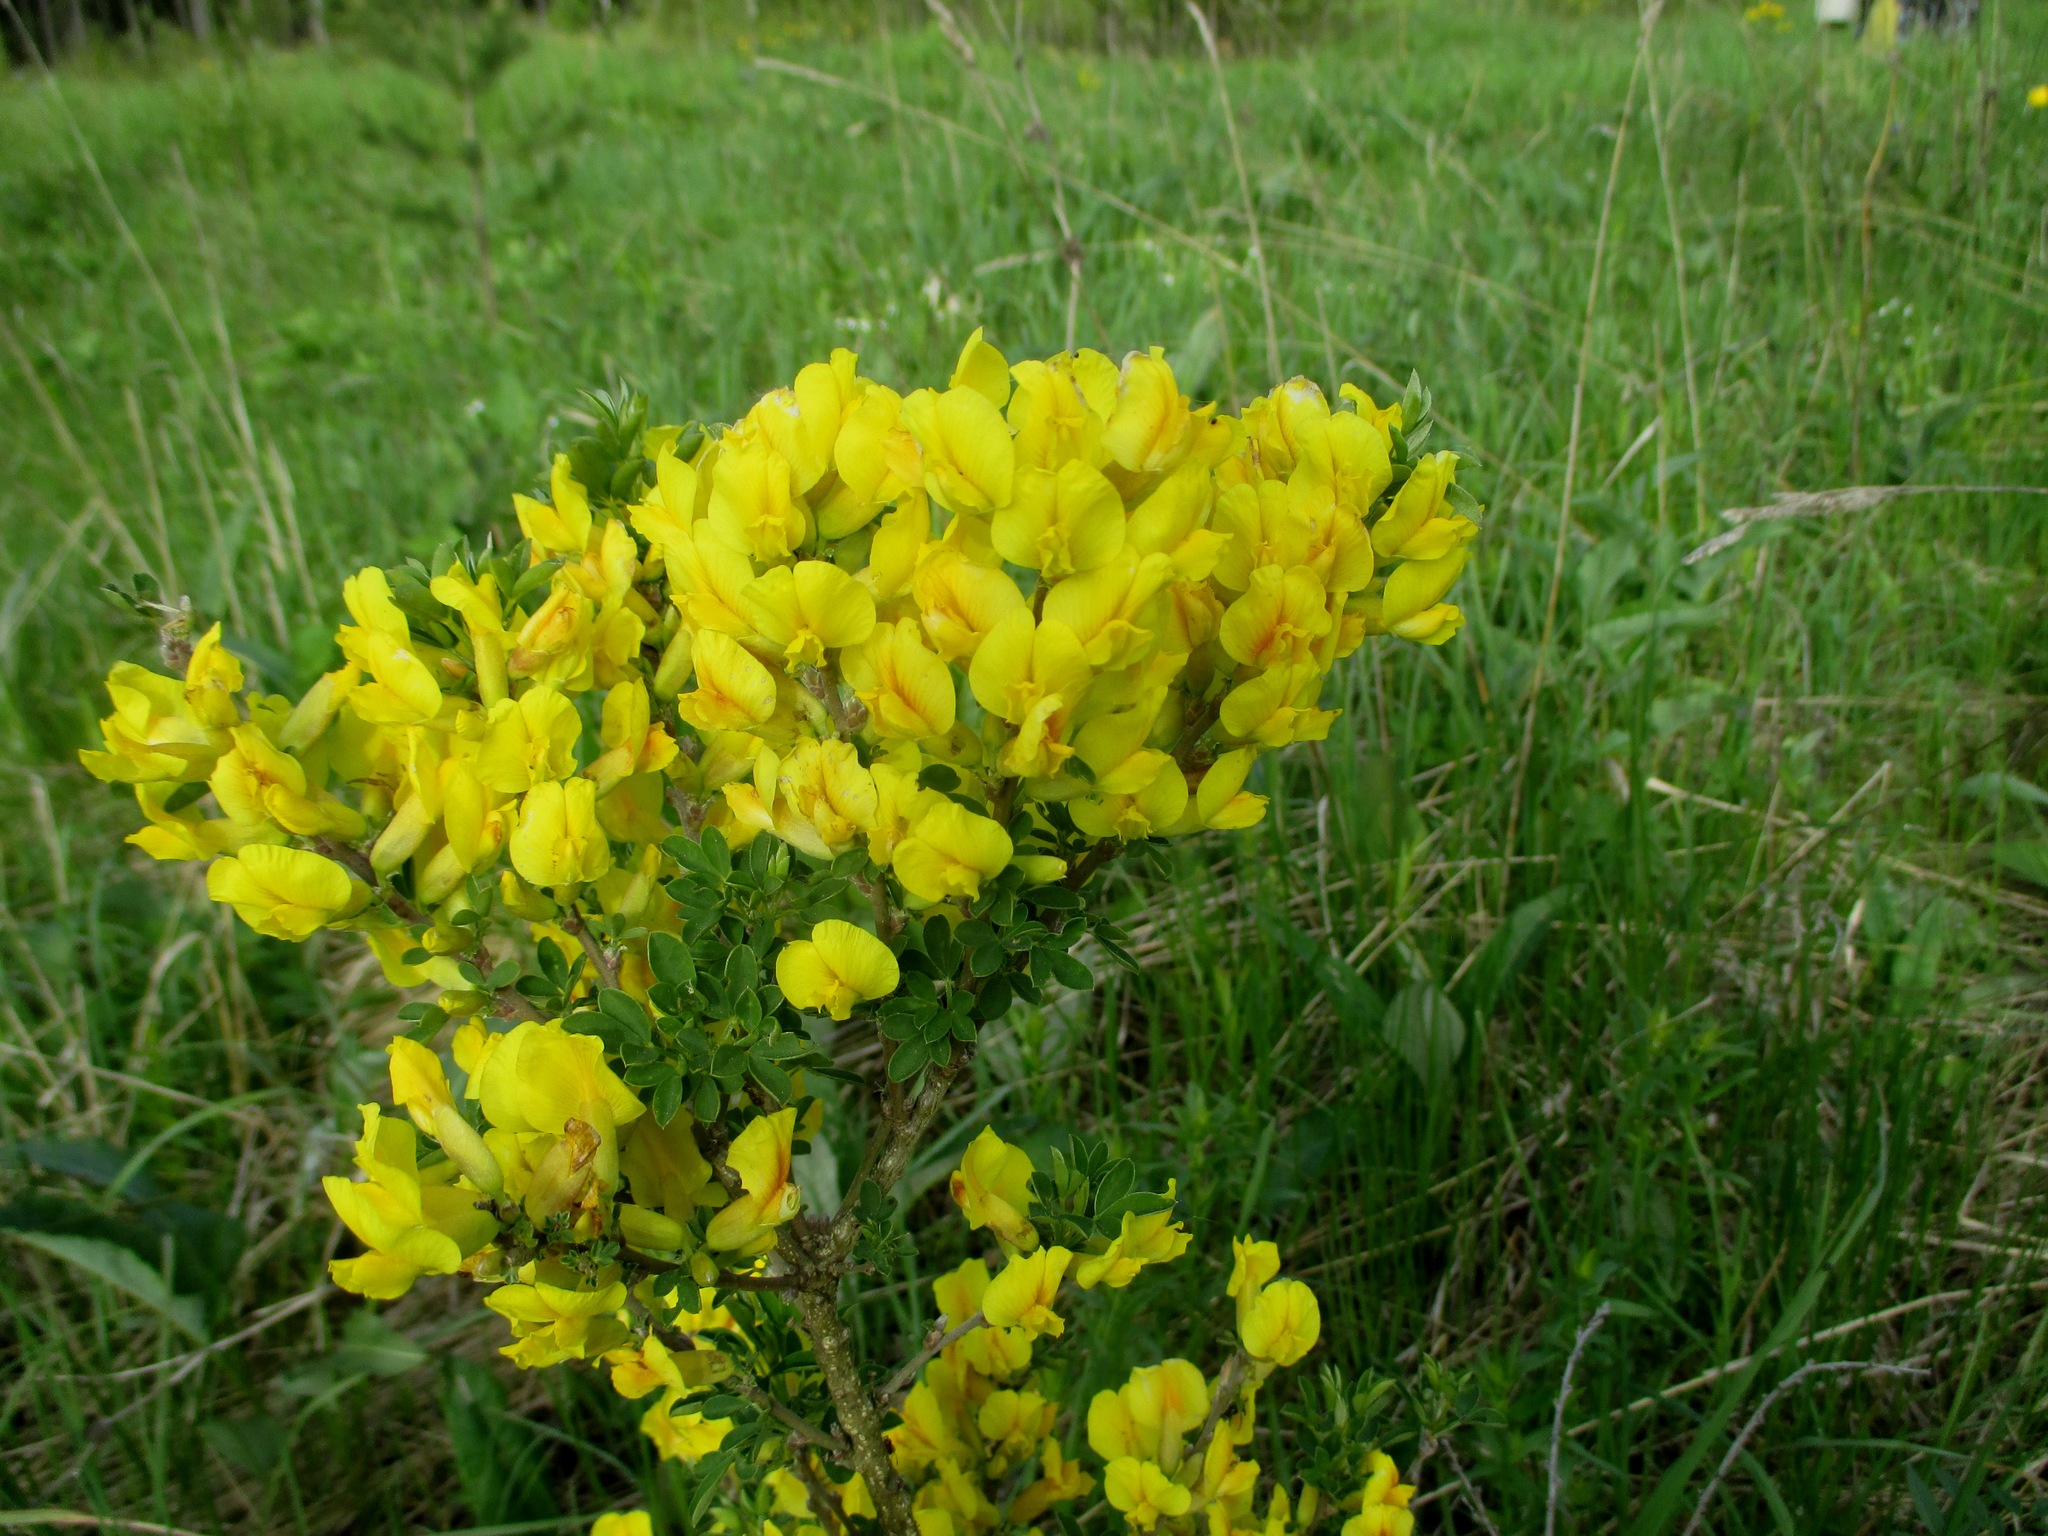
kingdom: Plantae
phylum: Tracheophyta
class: Magnoliopsida
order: Fabales
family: Fabaceae
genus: Chamaecytisus
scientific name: Chamaecytisus ruthenicus
